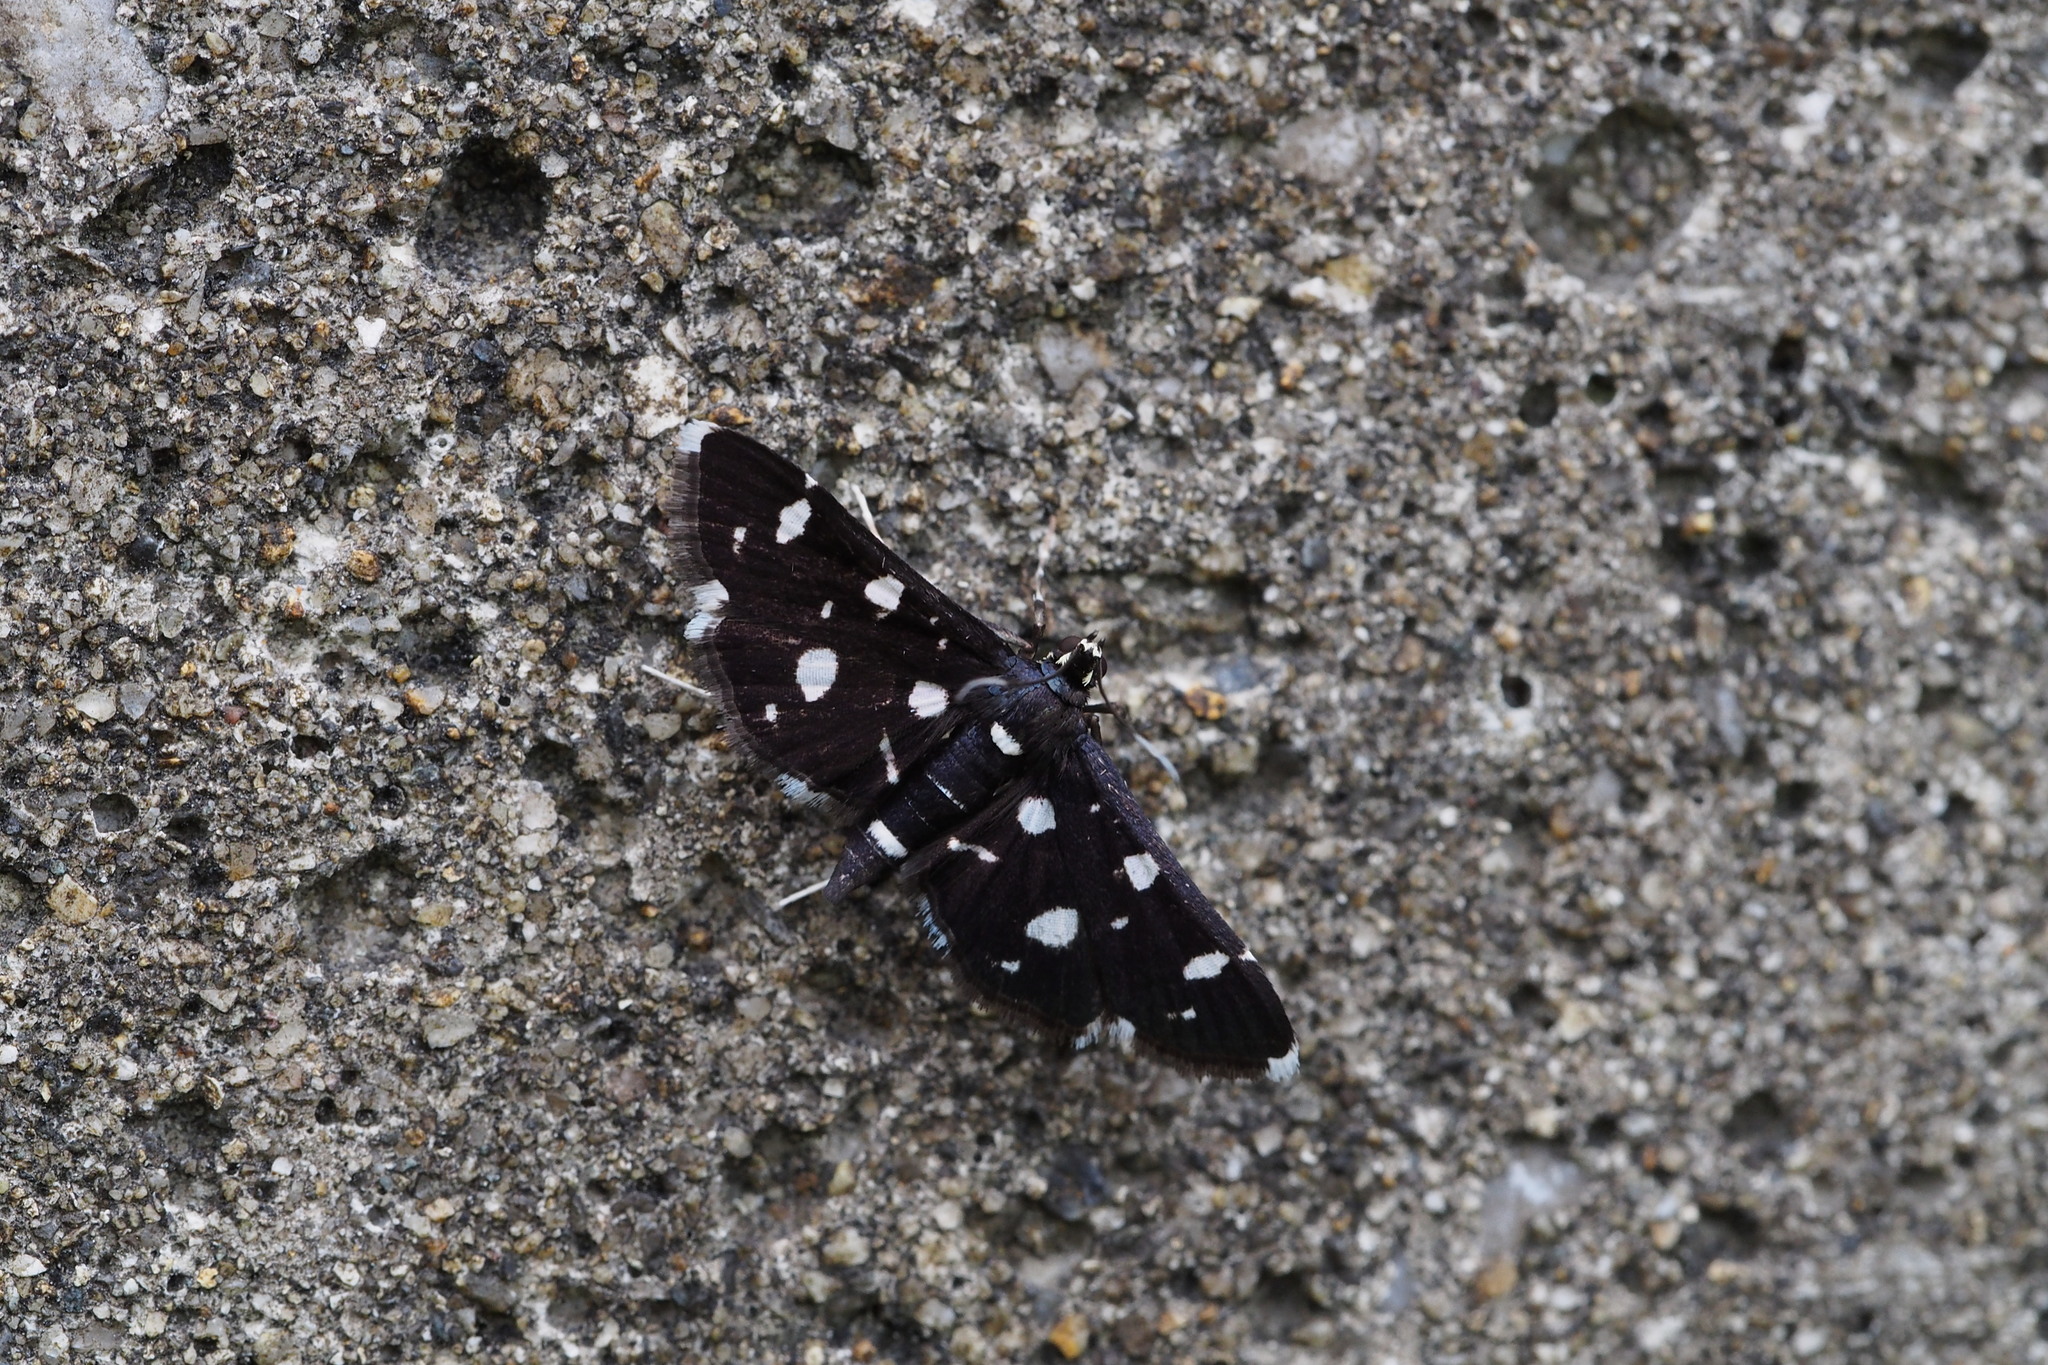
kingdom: Animalia
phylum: Arthropoda
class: Insecta
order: Lepidoptera
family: Crambidae
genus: Bocchoris
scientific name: Bocchoris inspersalis
